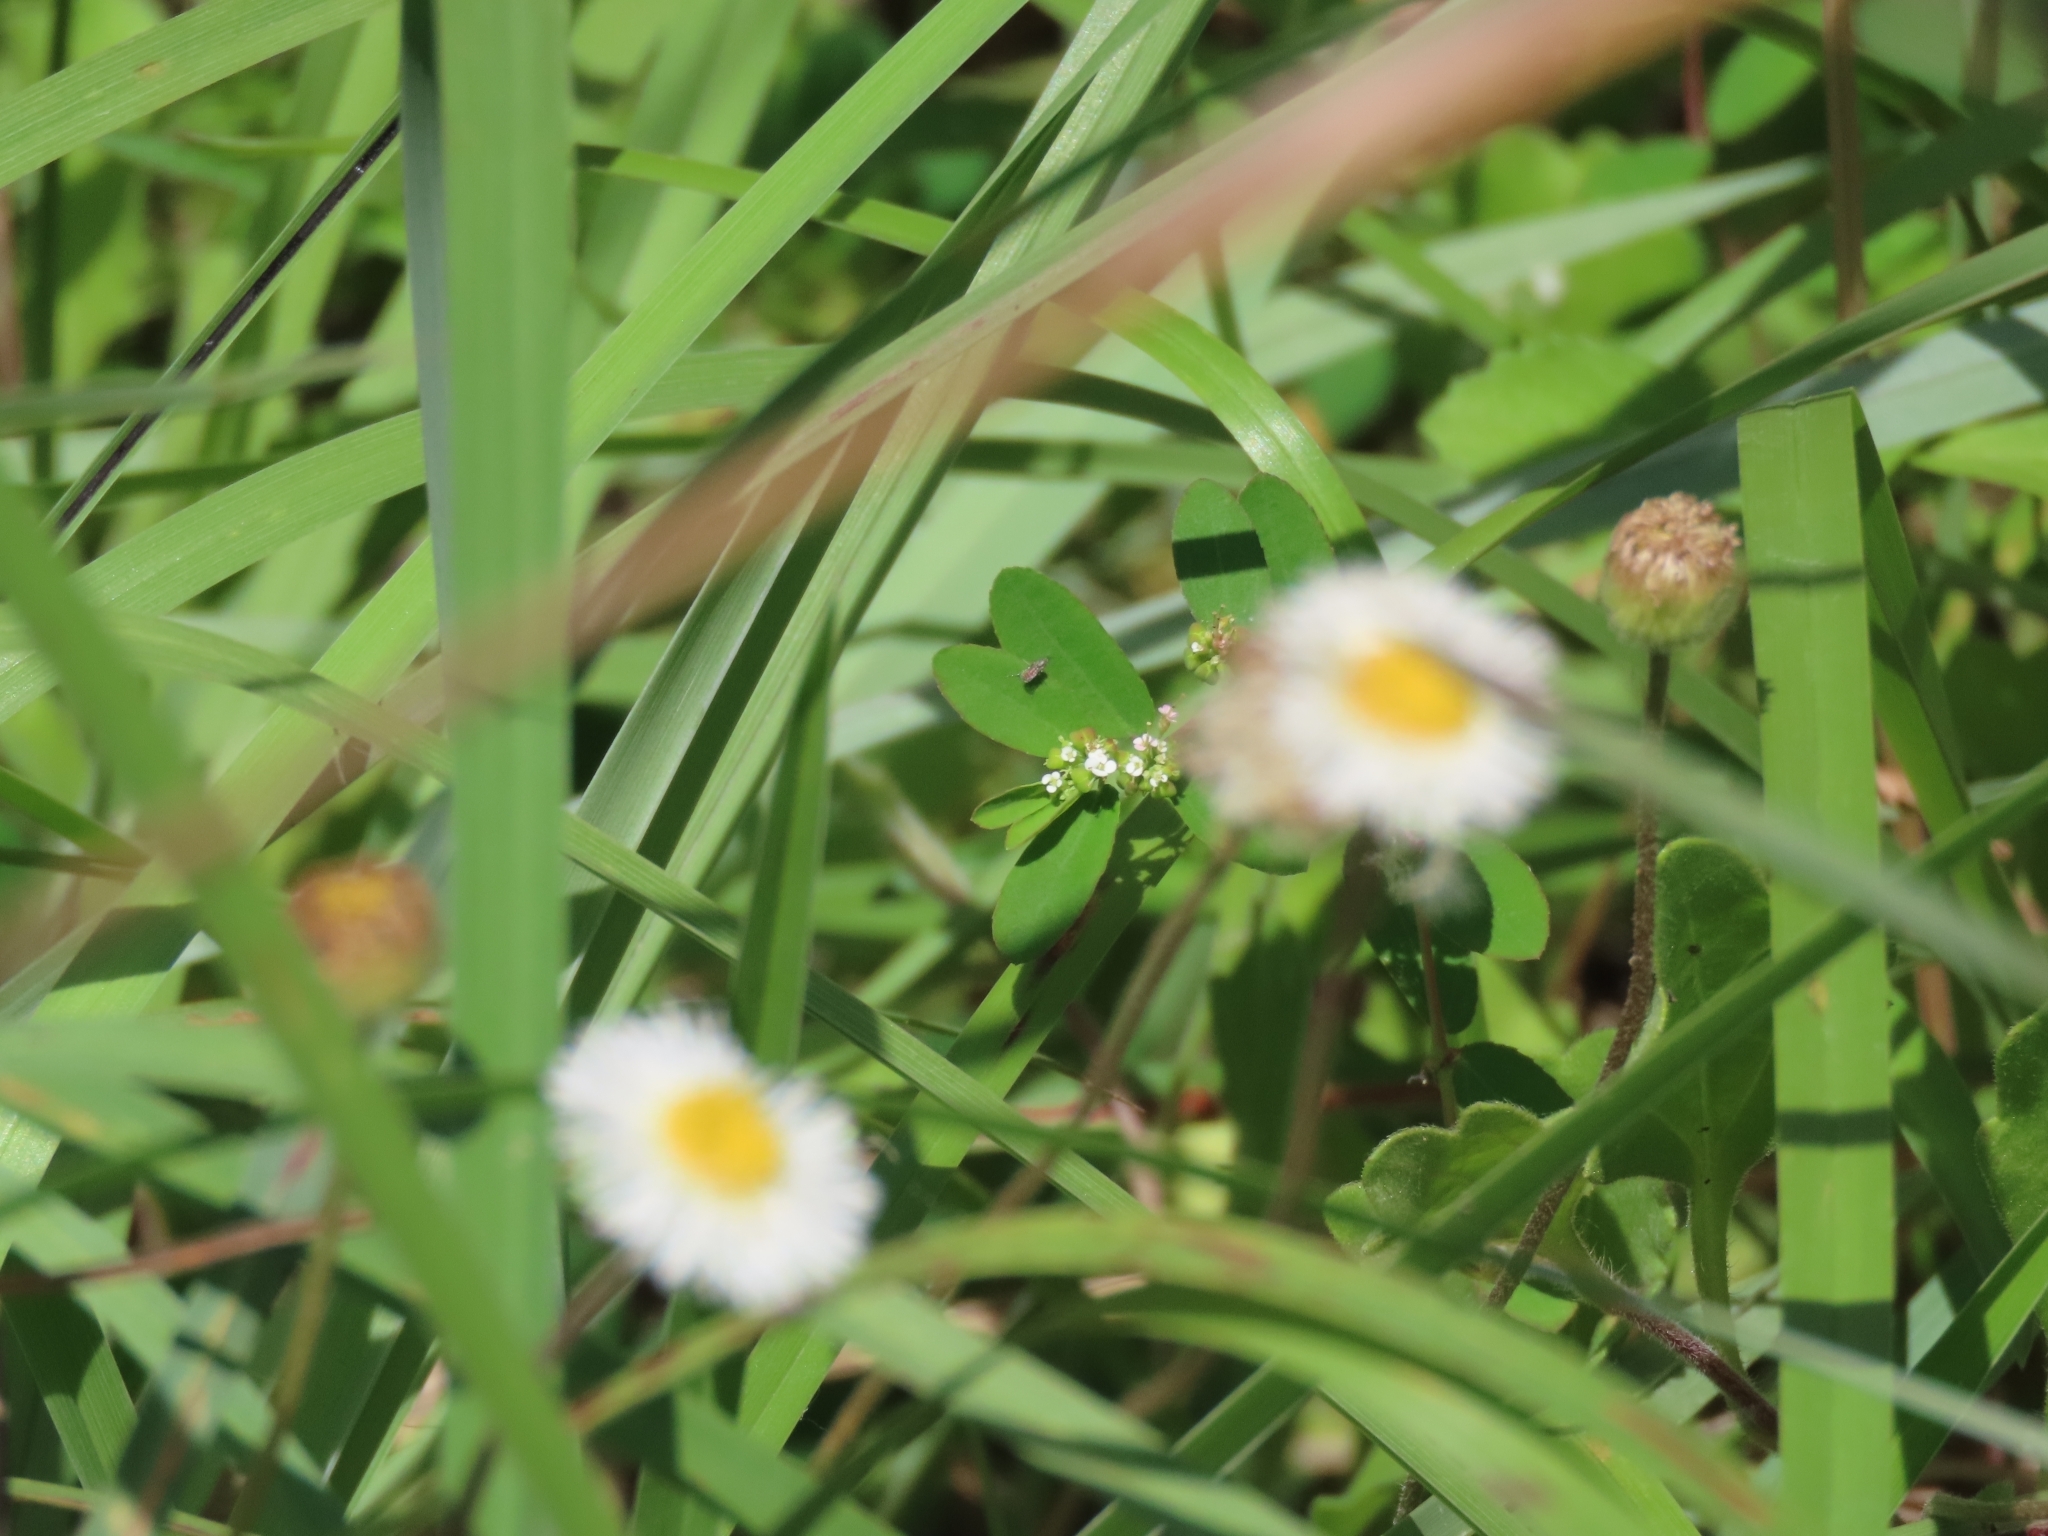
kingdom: Plantae
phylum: Tracheophyta
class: Magnoliopsida
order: Asterales
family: Asteraceae
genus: Erigeron
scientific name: Erigeron procumbens
